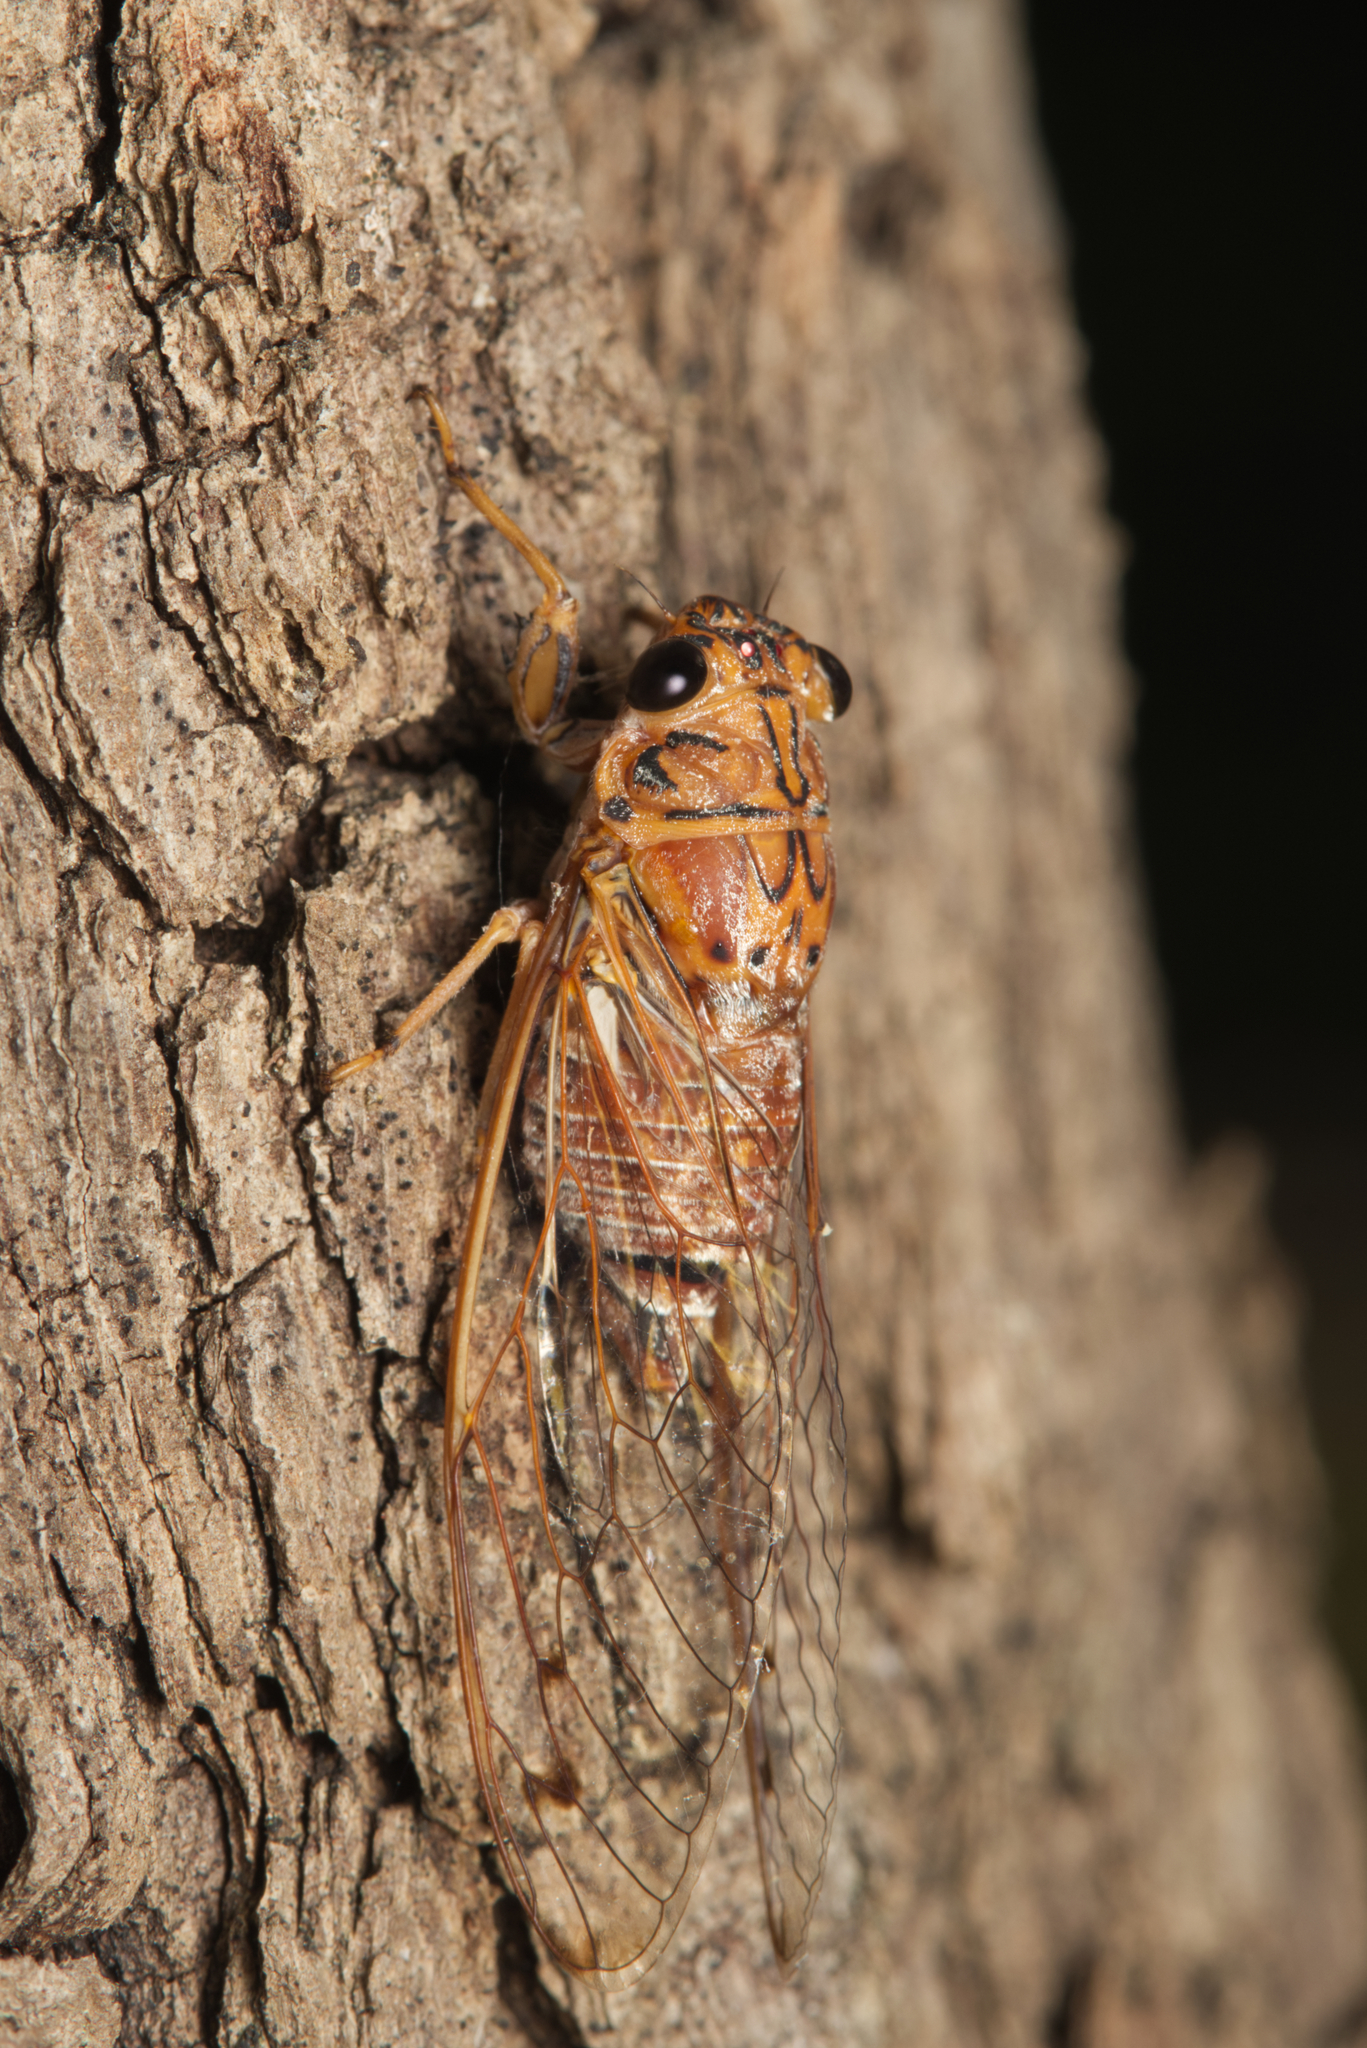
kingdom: Animalia
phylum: Arthropoda
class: Insecta
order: Hemiptera
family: Cicadidae
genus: Tamasa
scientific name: Tamasa tristigma
